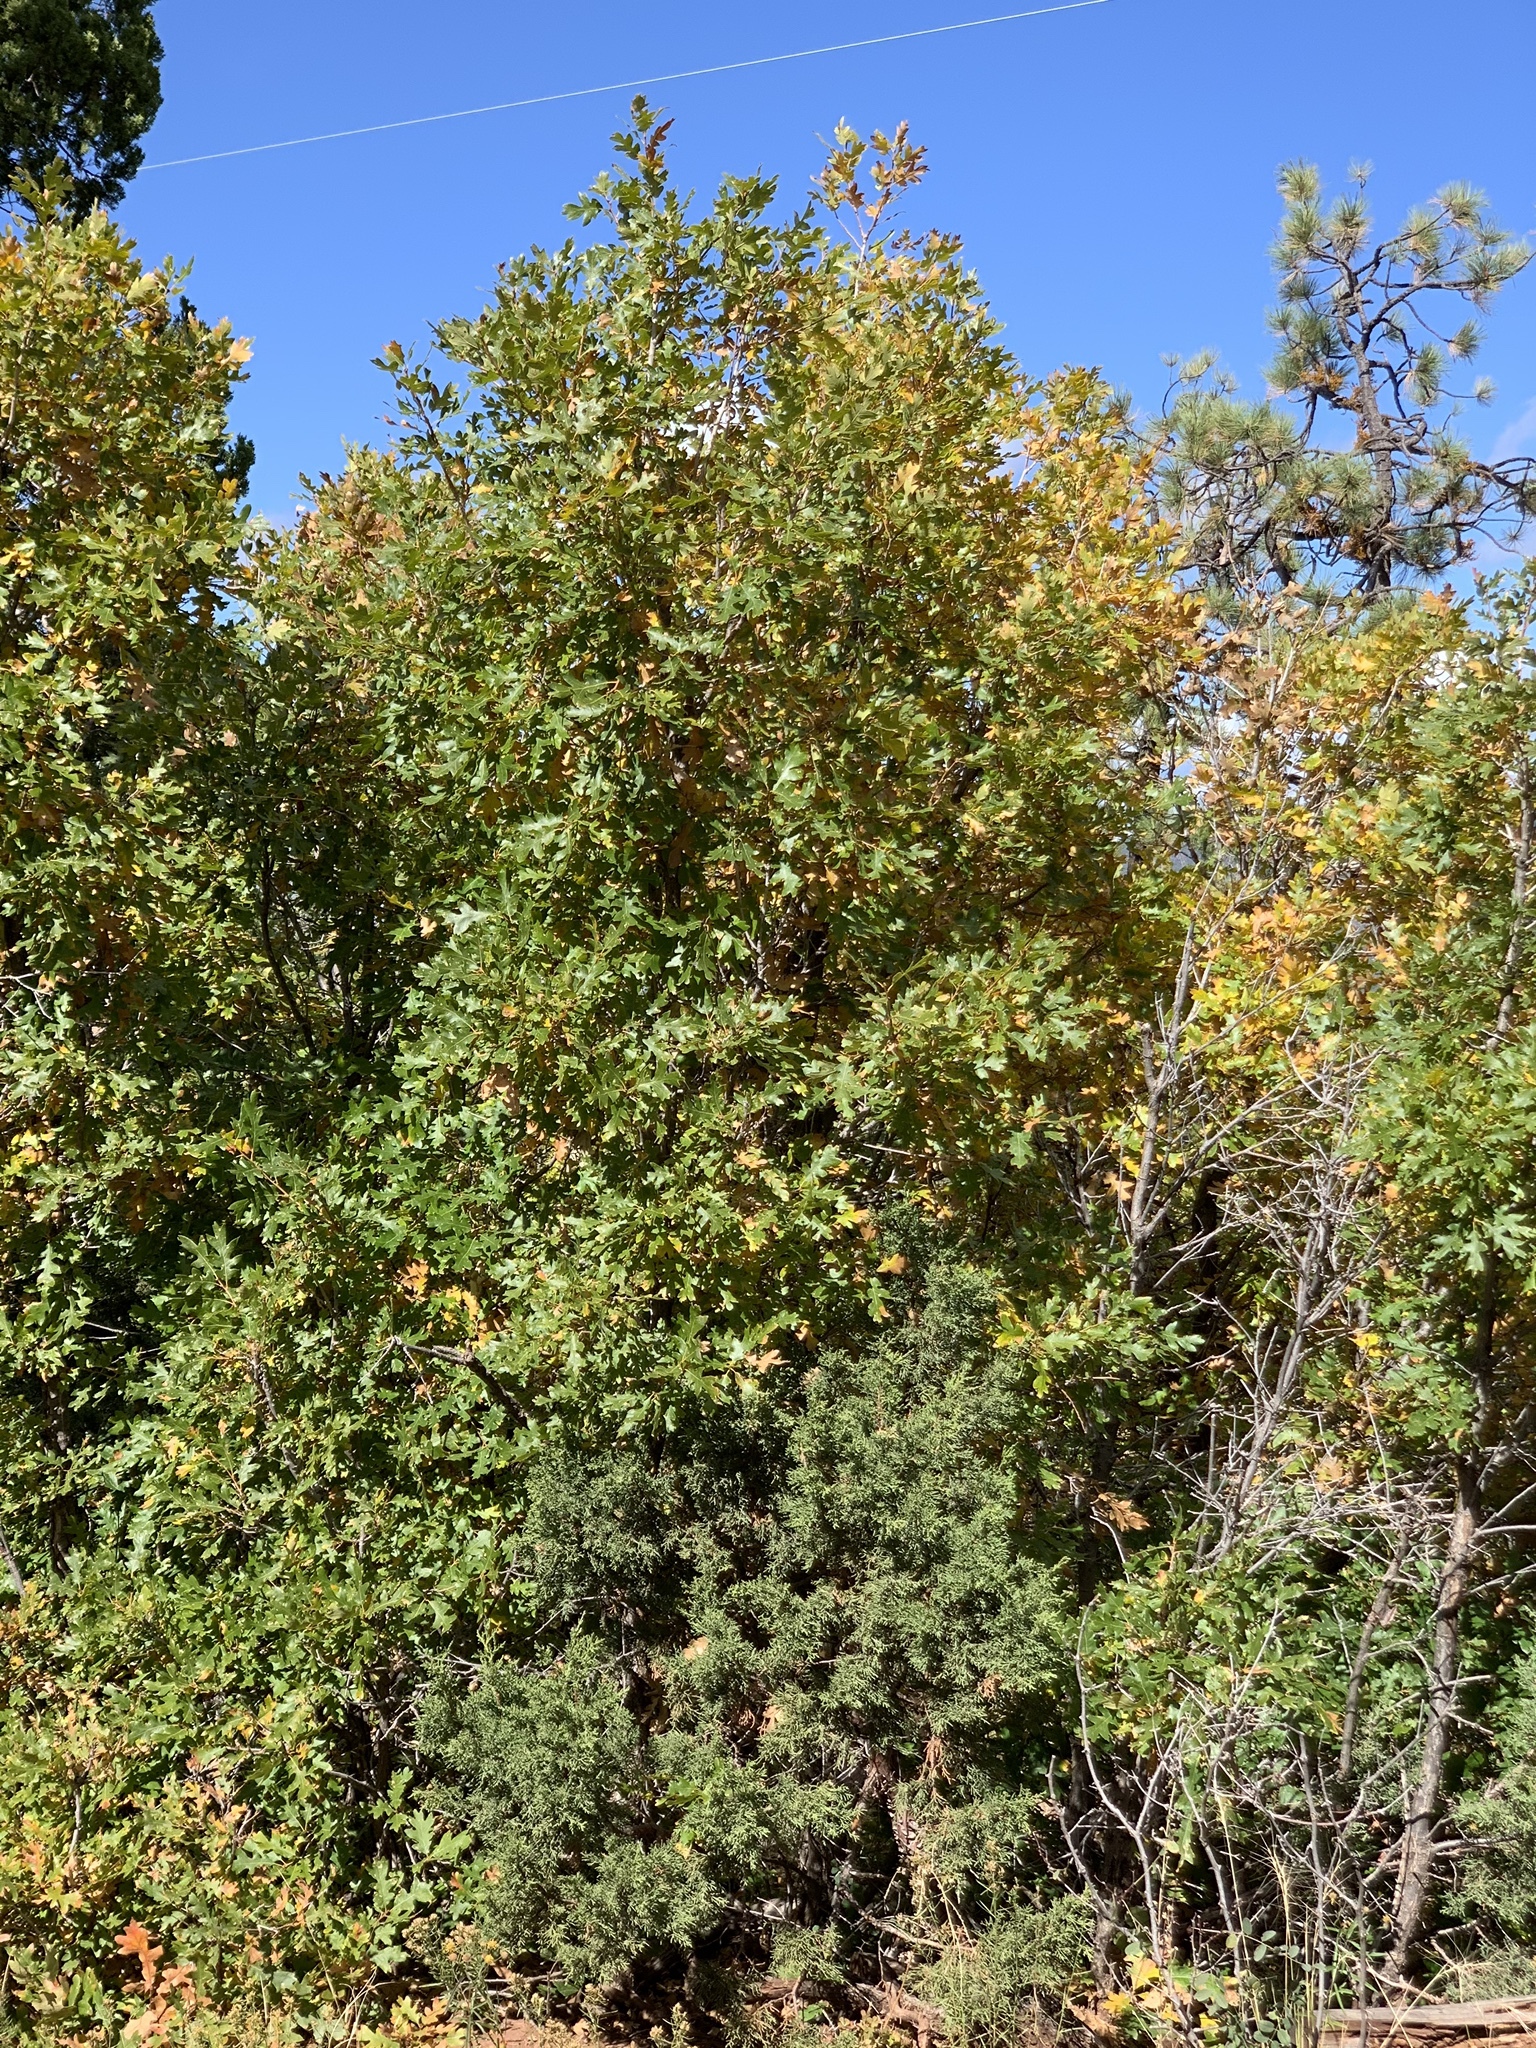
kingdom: Plantae
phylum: Tracheophyta
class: Magnoliopsida
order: Fagales
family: Fagaceae
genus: Quercus
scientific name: Quercus gambelii
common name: Gambel oak
